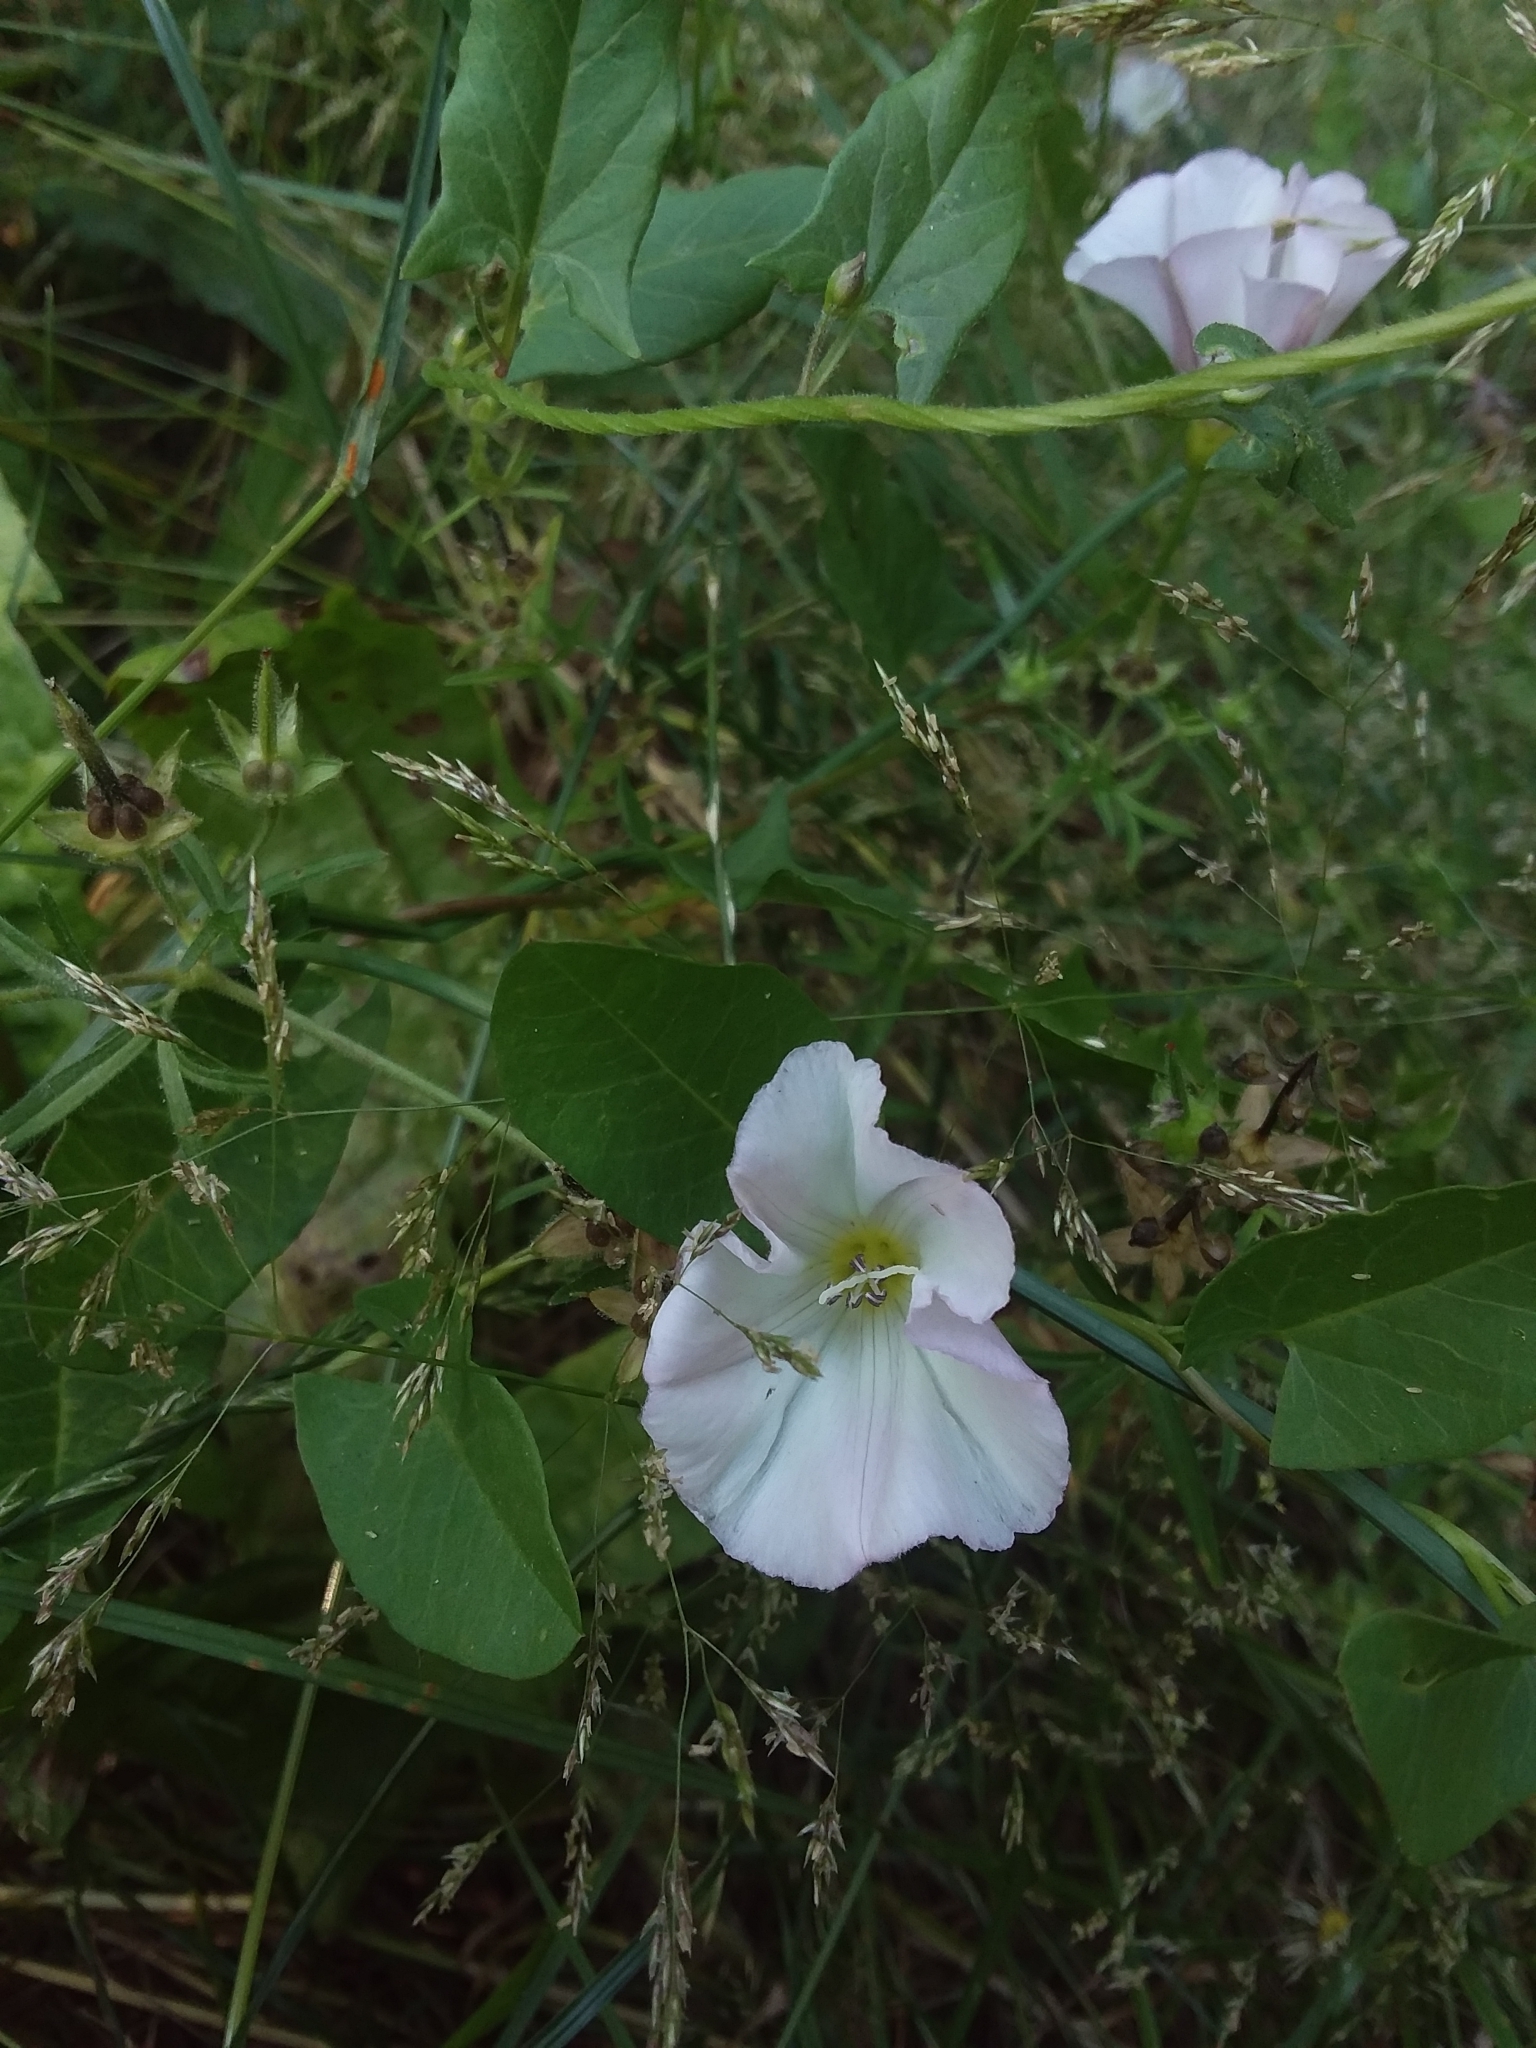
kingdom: Plantae
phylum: Tracheophyta
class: Magnoliopsida
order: Solanales
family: Convolvulaceae
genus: Convolvulus
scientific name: Convolvulus arvensis
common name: Field bindweed
